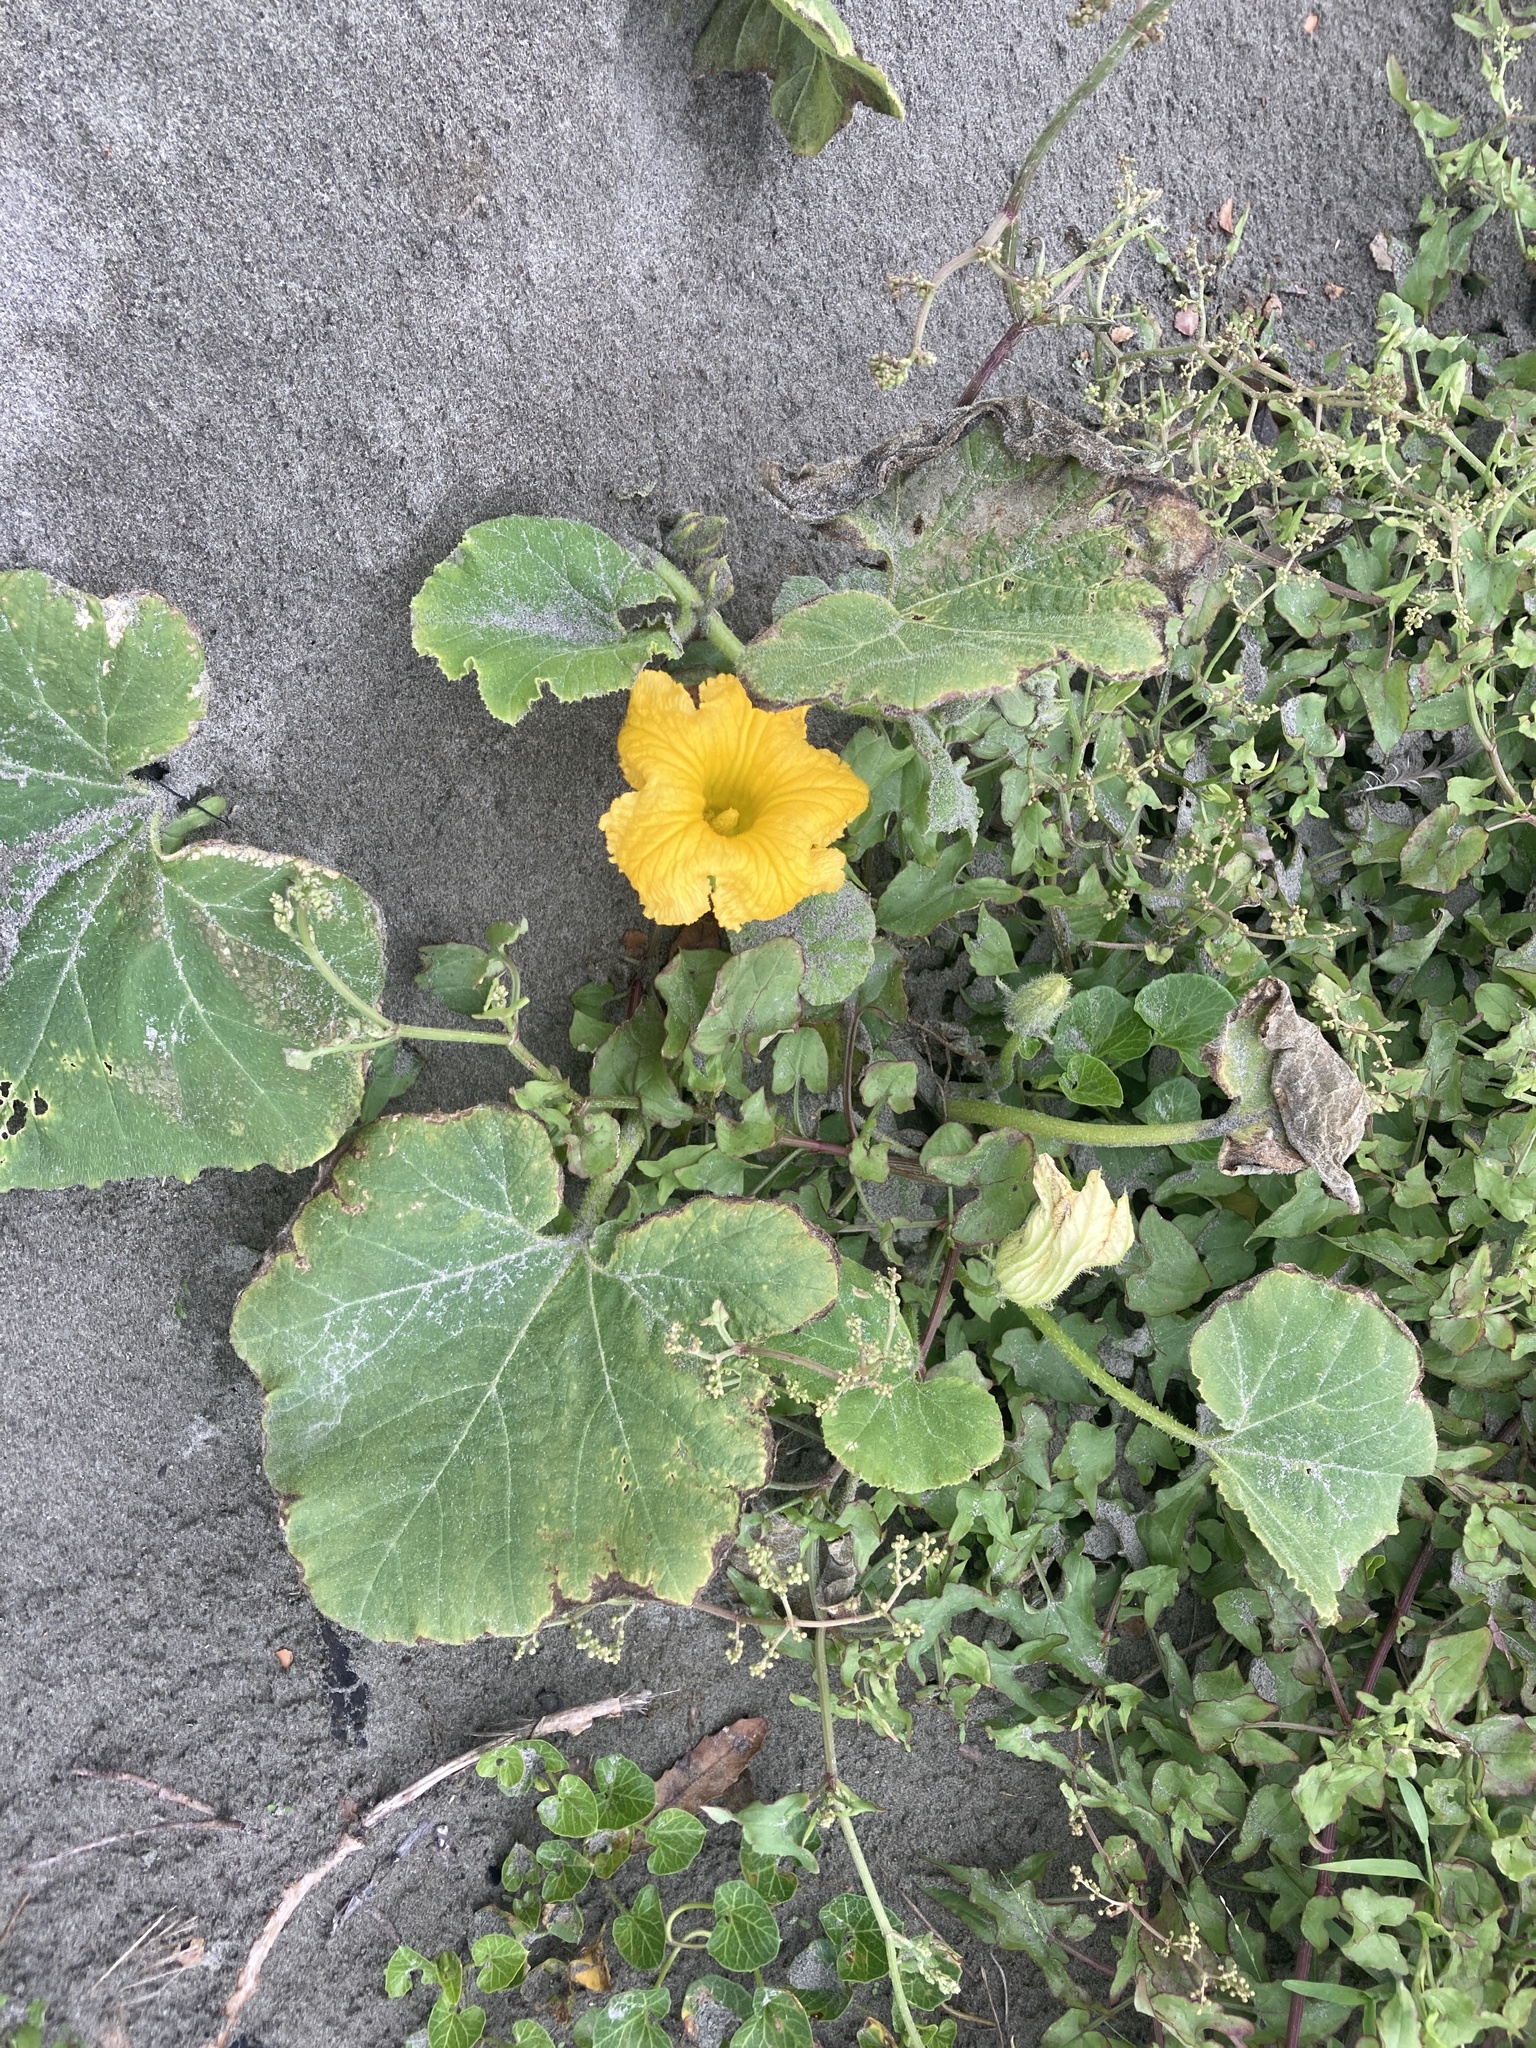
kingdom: Plantae
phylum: Tracheophyta
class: Magnoliopsida
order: Cucurbitales
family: Cucurbitaceae
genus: Cucurbita
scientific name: Cucurbita maxima
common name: Pumpkin
